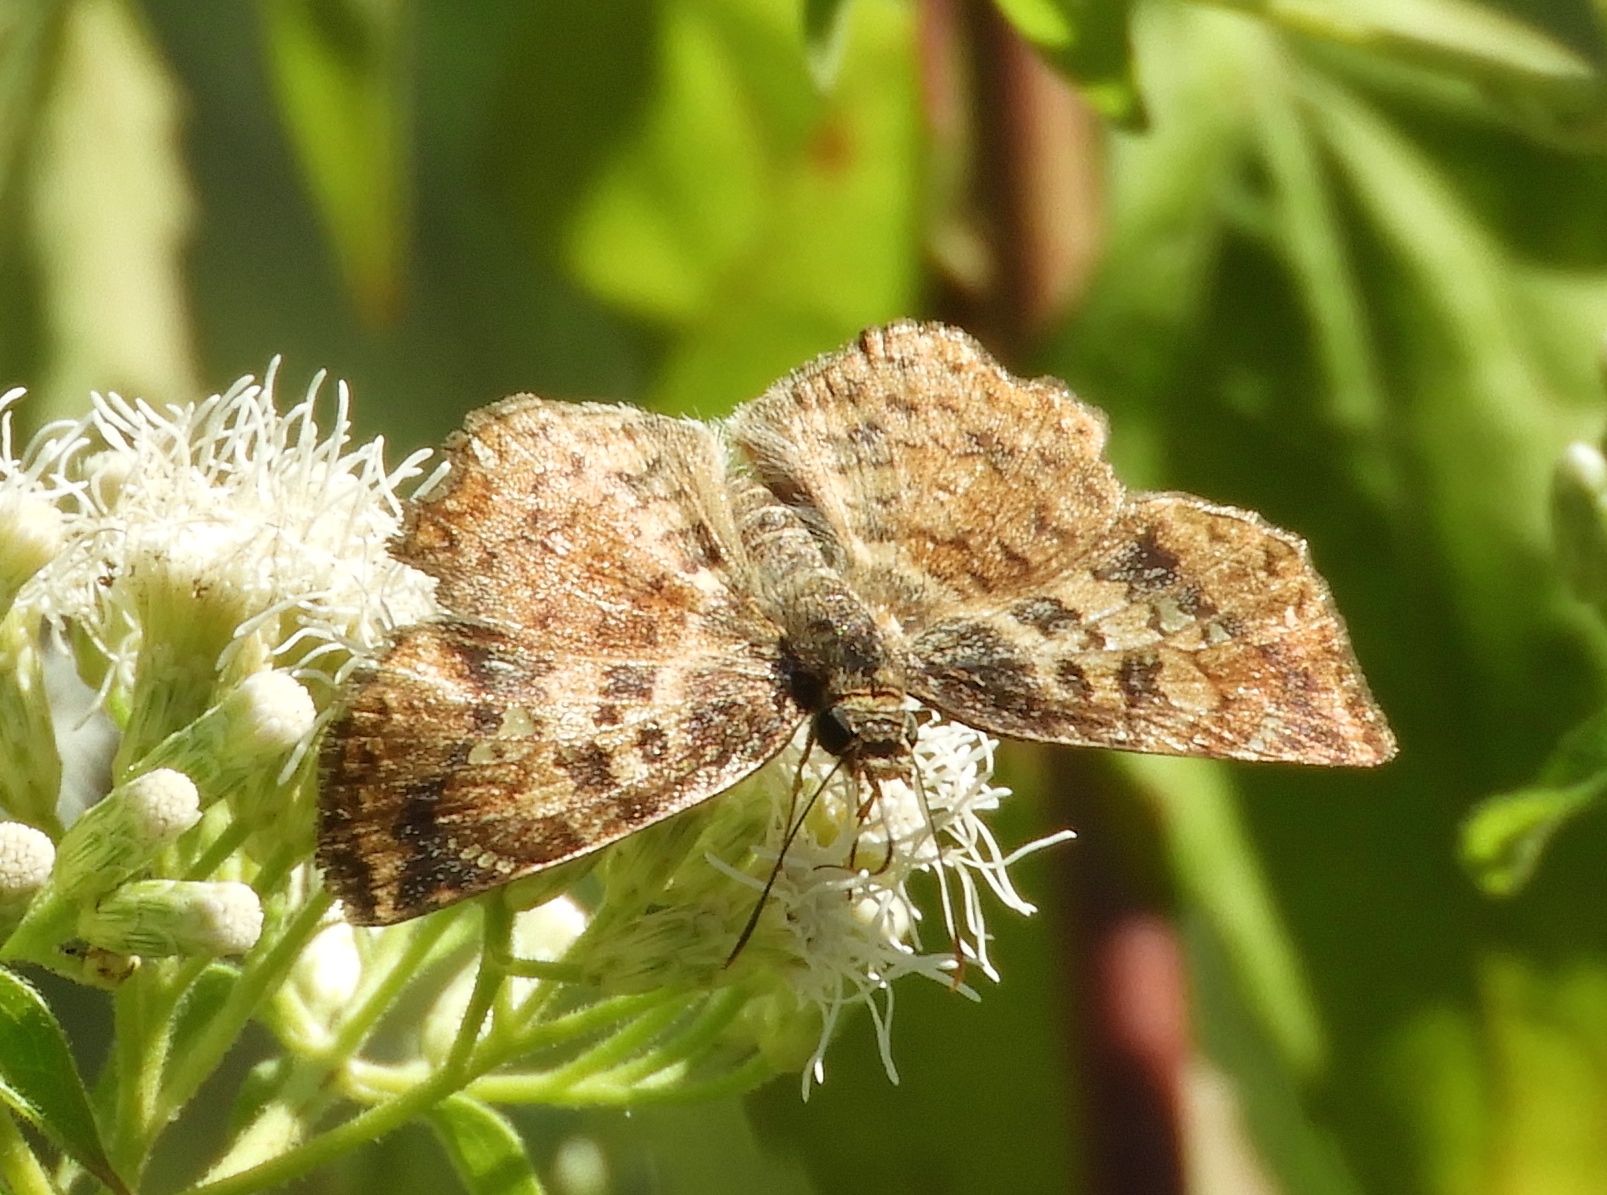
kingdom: Animalia
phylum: Arthropoda
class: Insecta
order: Lepidoptera
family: Hesperiidae
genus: Antigonus
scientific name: Antigonus erosus
